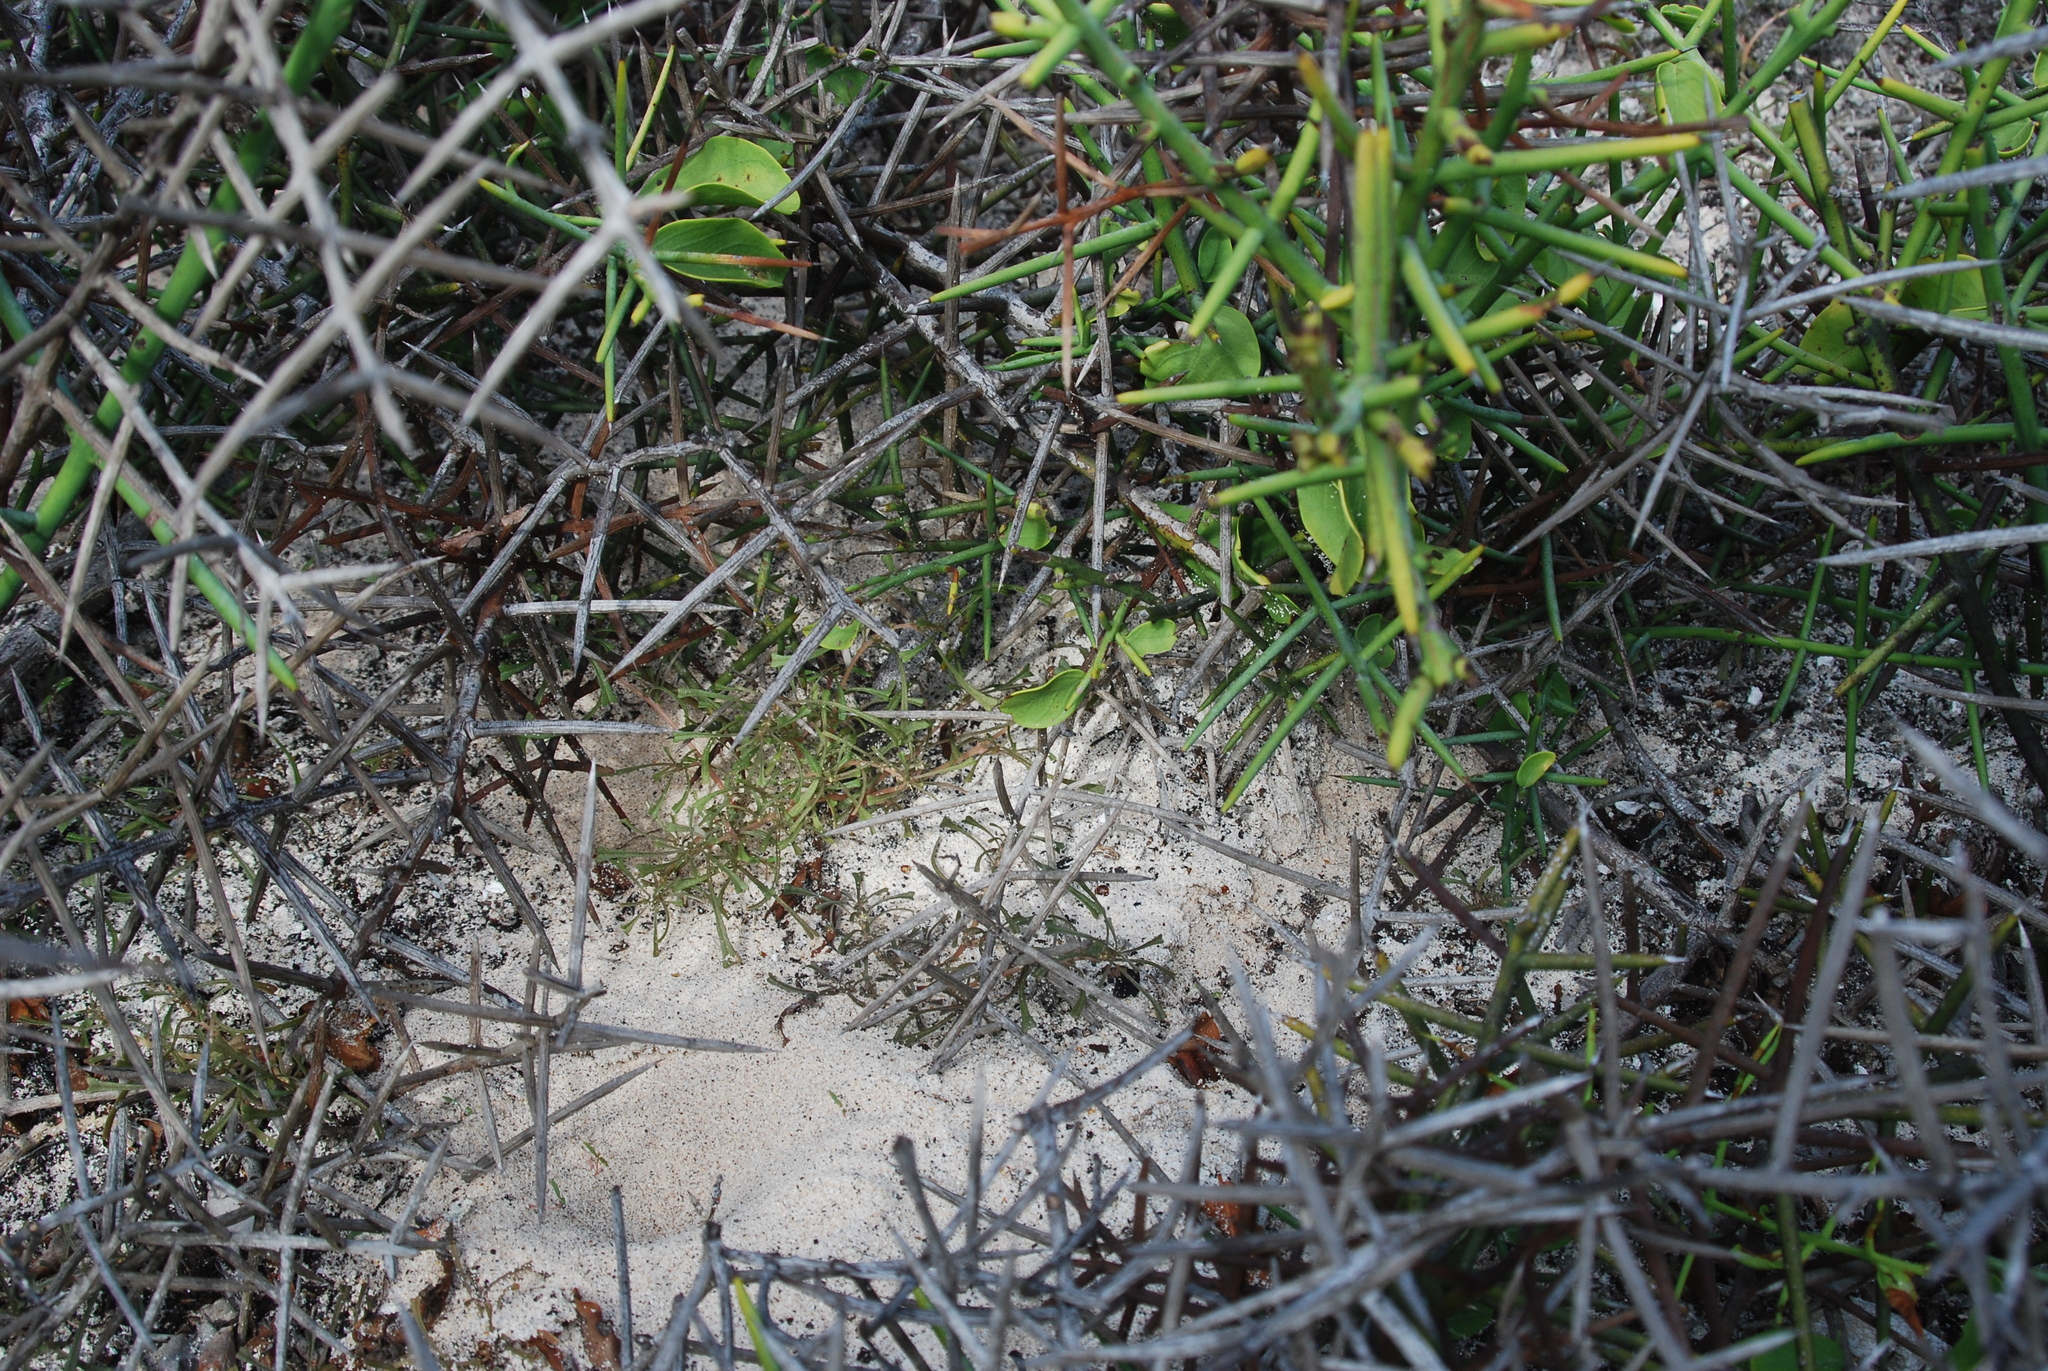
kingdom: Plantae
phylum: Tracheophyta
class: Magnoliopsida
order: Rosales
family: Rhamnaceae
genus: Scutia
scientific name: Scutia spicata
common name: Spiny bush
